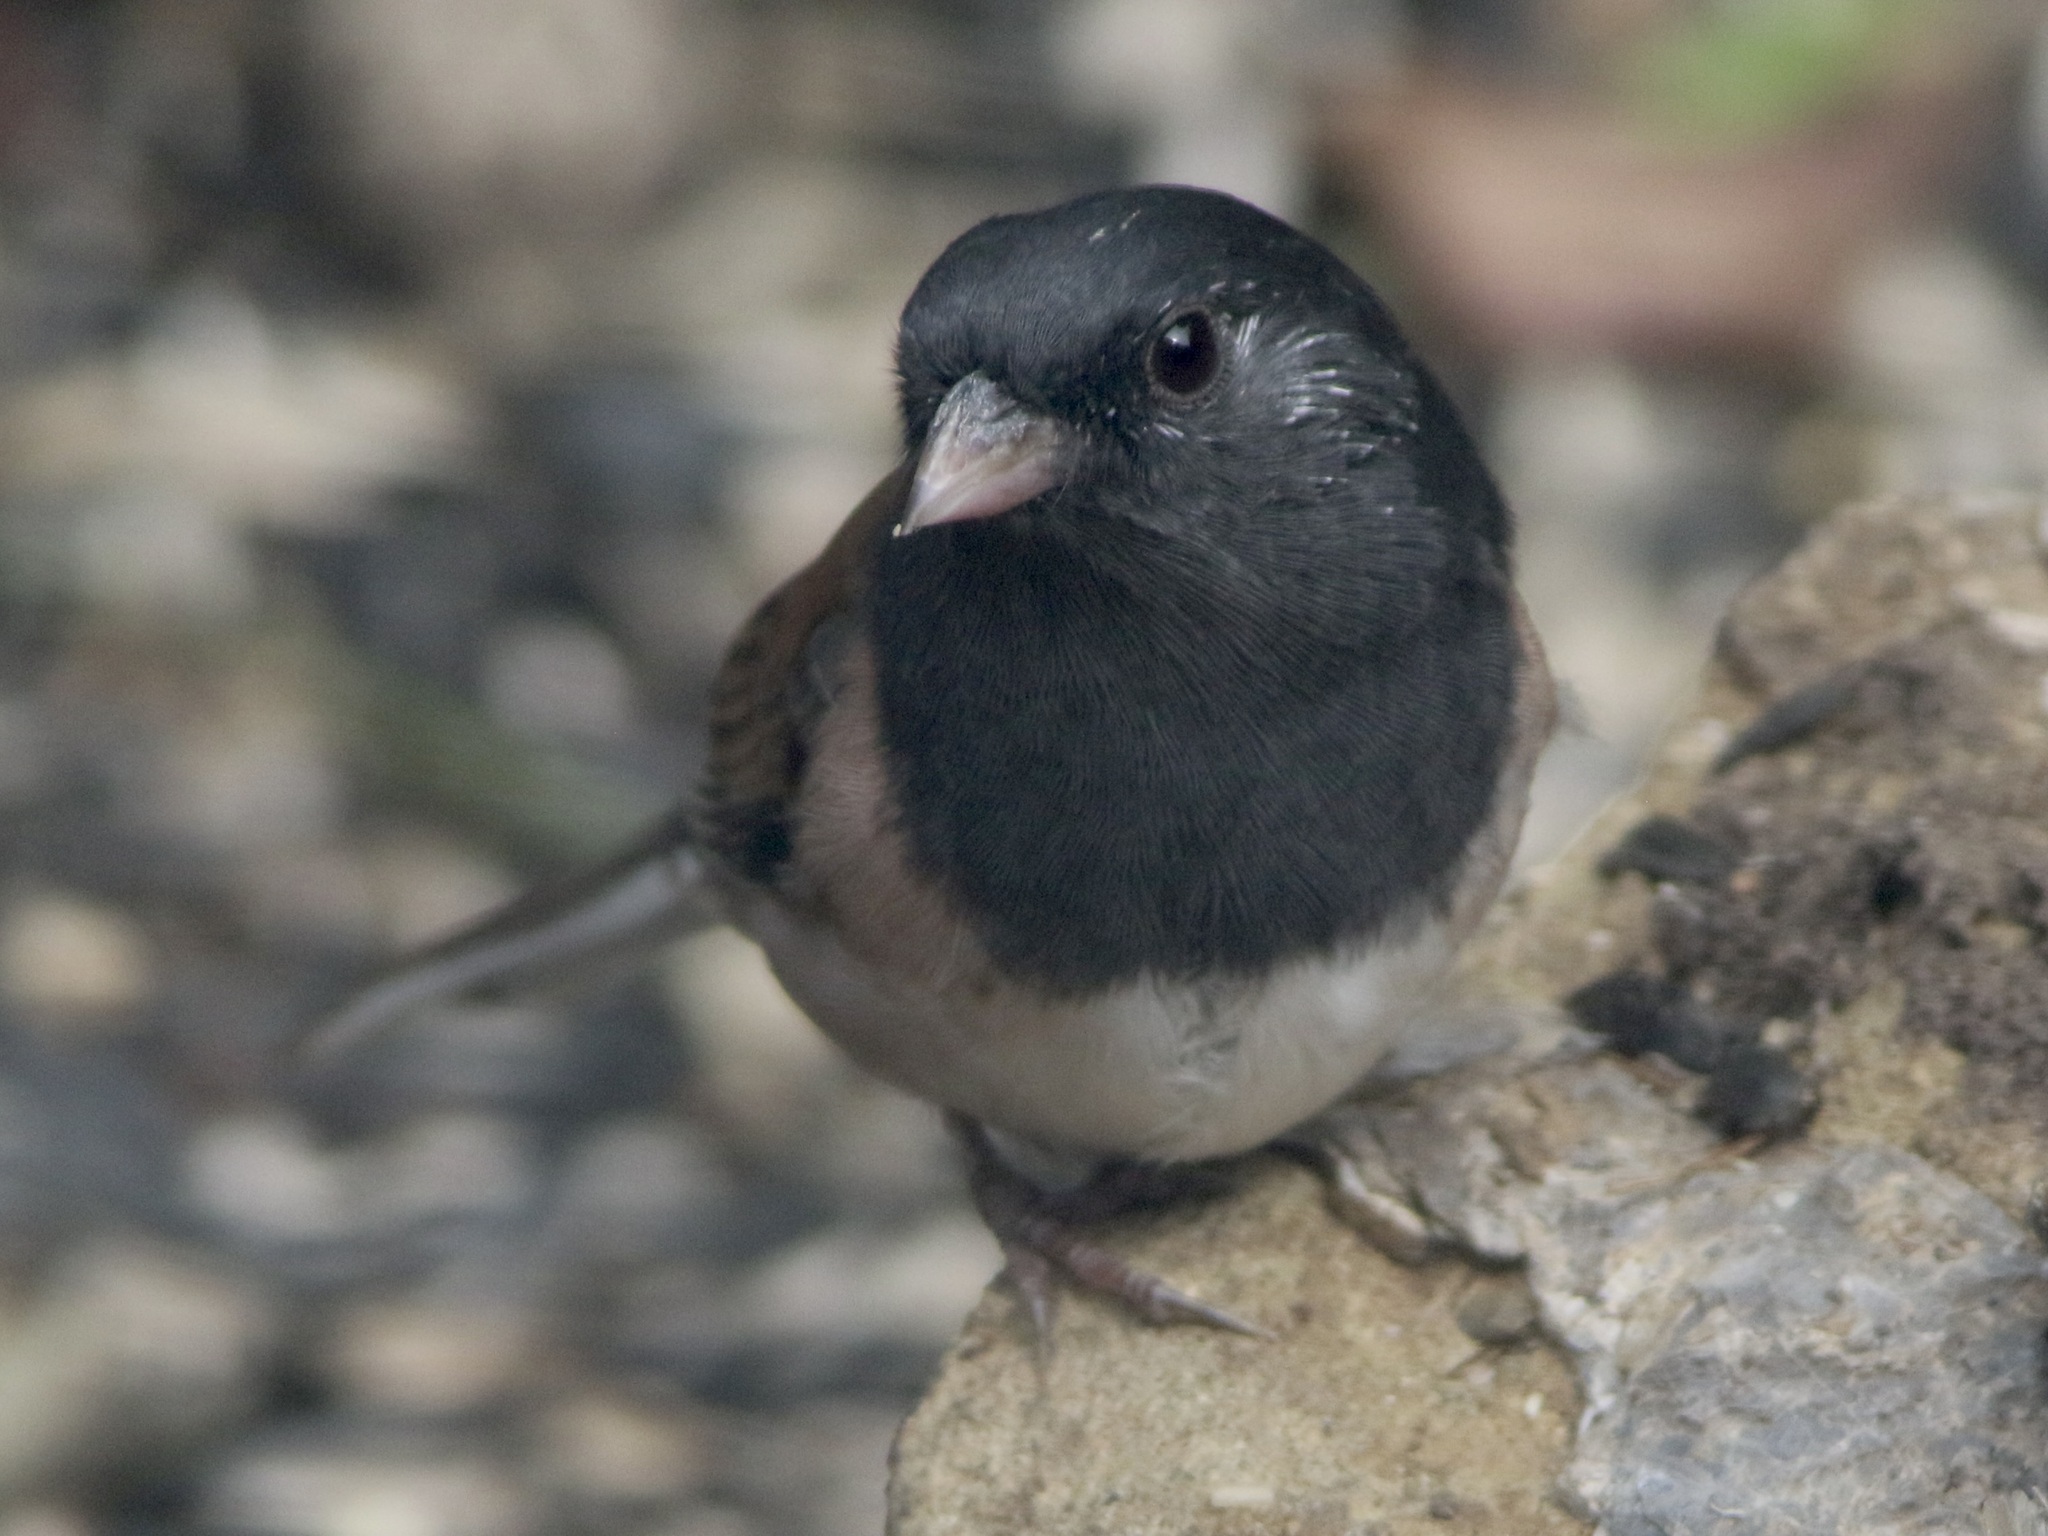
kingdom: Animalia
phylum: Chordata
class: Aves
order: Passeriformes
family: Passerellidae
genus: Junco
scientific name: Junco hyemalis
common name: Dark-eyed junco
